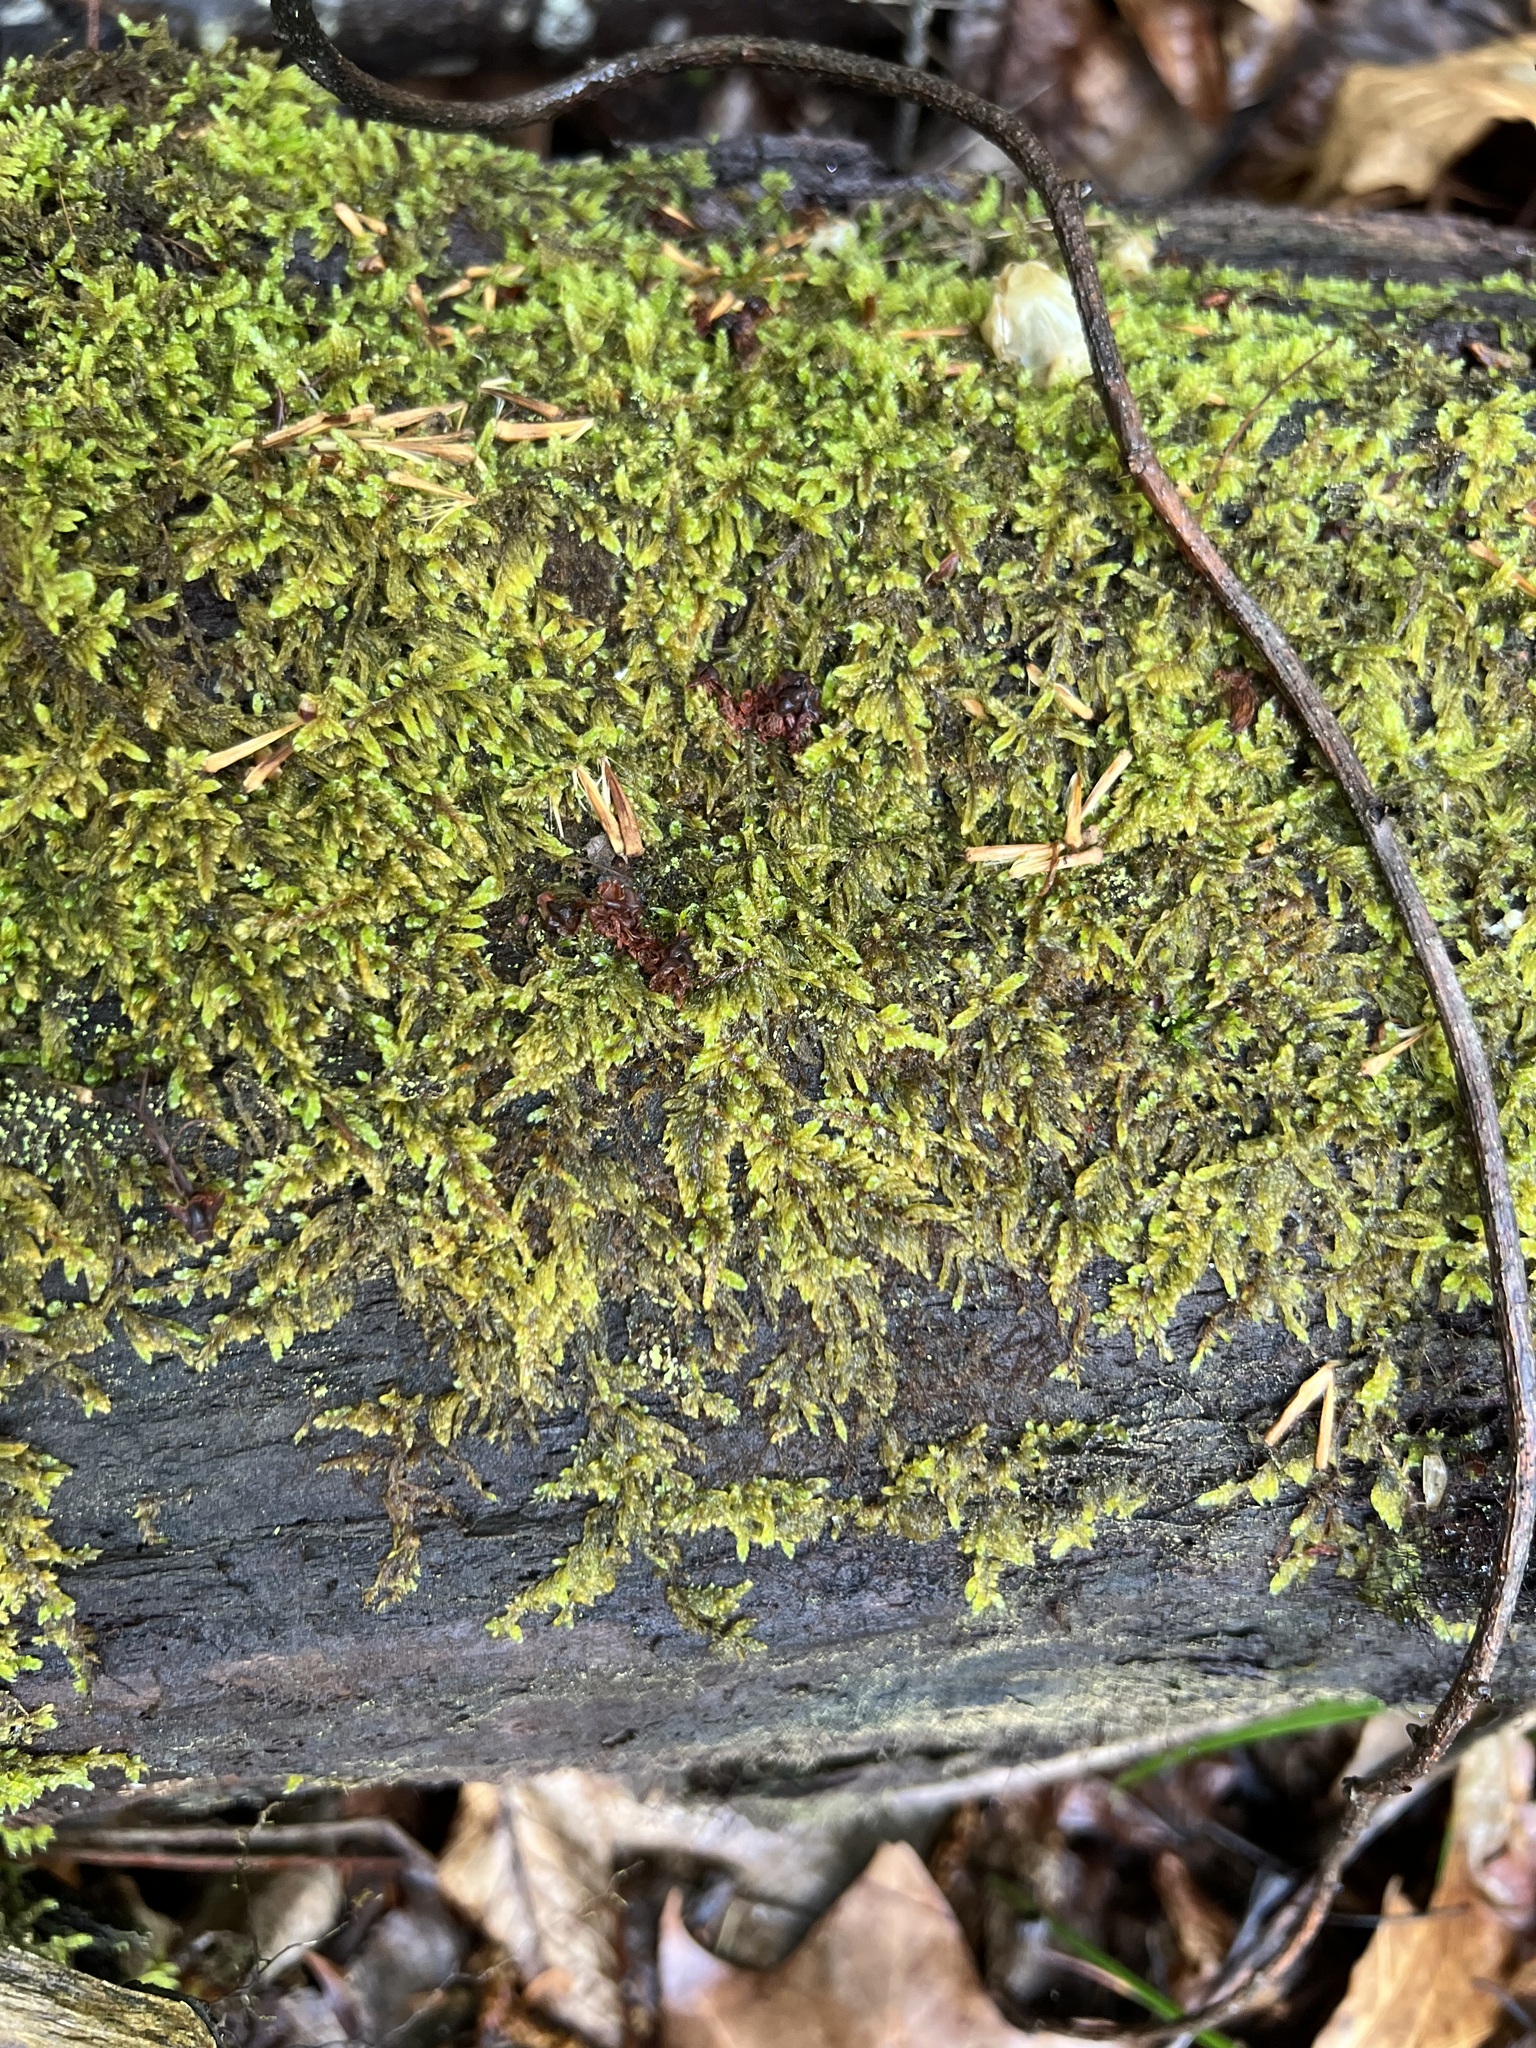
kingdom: Plantae
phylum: Bryophyta
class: Bryopsida
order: Hypnales
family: Callicladiaceae
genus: Callicladium
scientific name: Callicladium imponens
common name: Brocade moss
